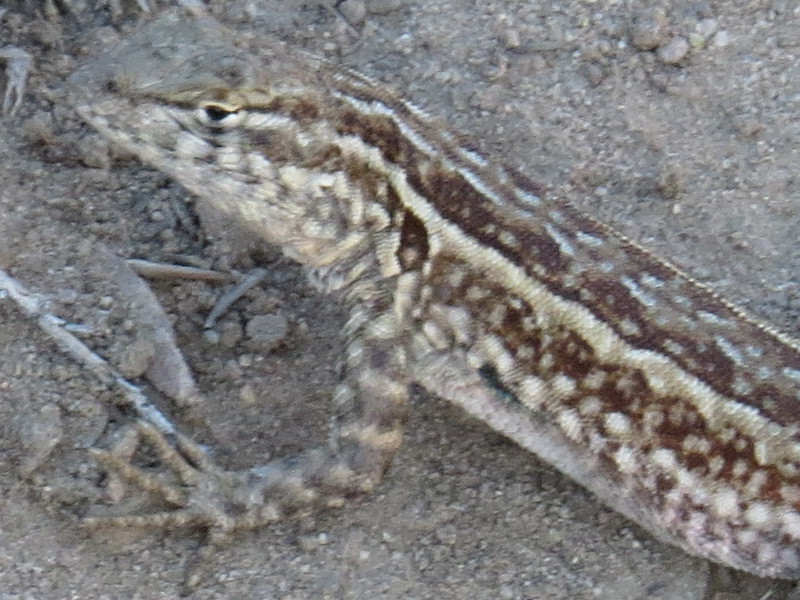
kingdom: Animalia
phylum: Chordata
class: Squamata
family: Phrynosomatidae
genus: Uta
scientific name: Uta stansburiana
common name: Side-blotched lizard
